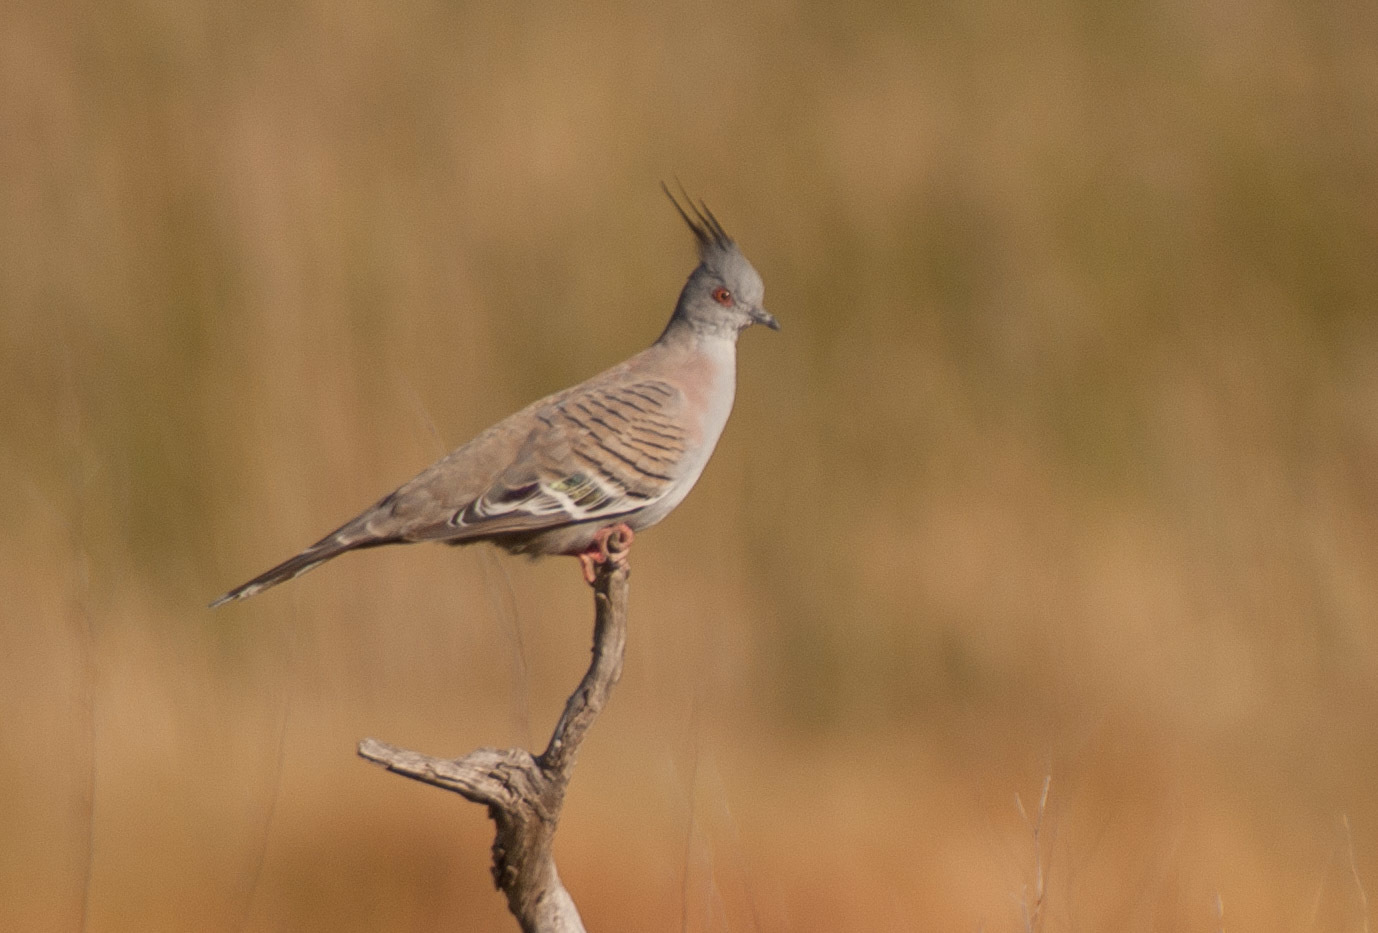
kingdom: Animalia
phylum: Chordata
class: Aves
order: Columbiformes
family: Columbidae
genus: Ocyphaps
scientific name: Ocyphaps lophotes
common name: Crested pigeon
